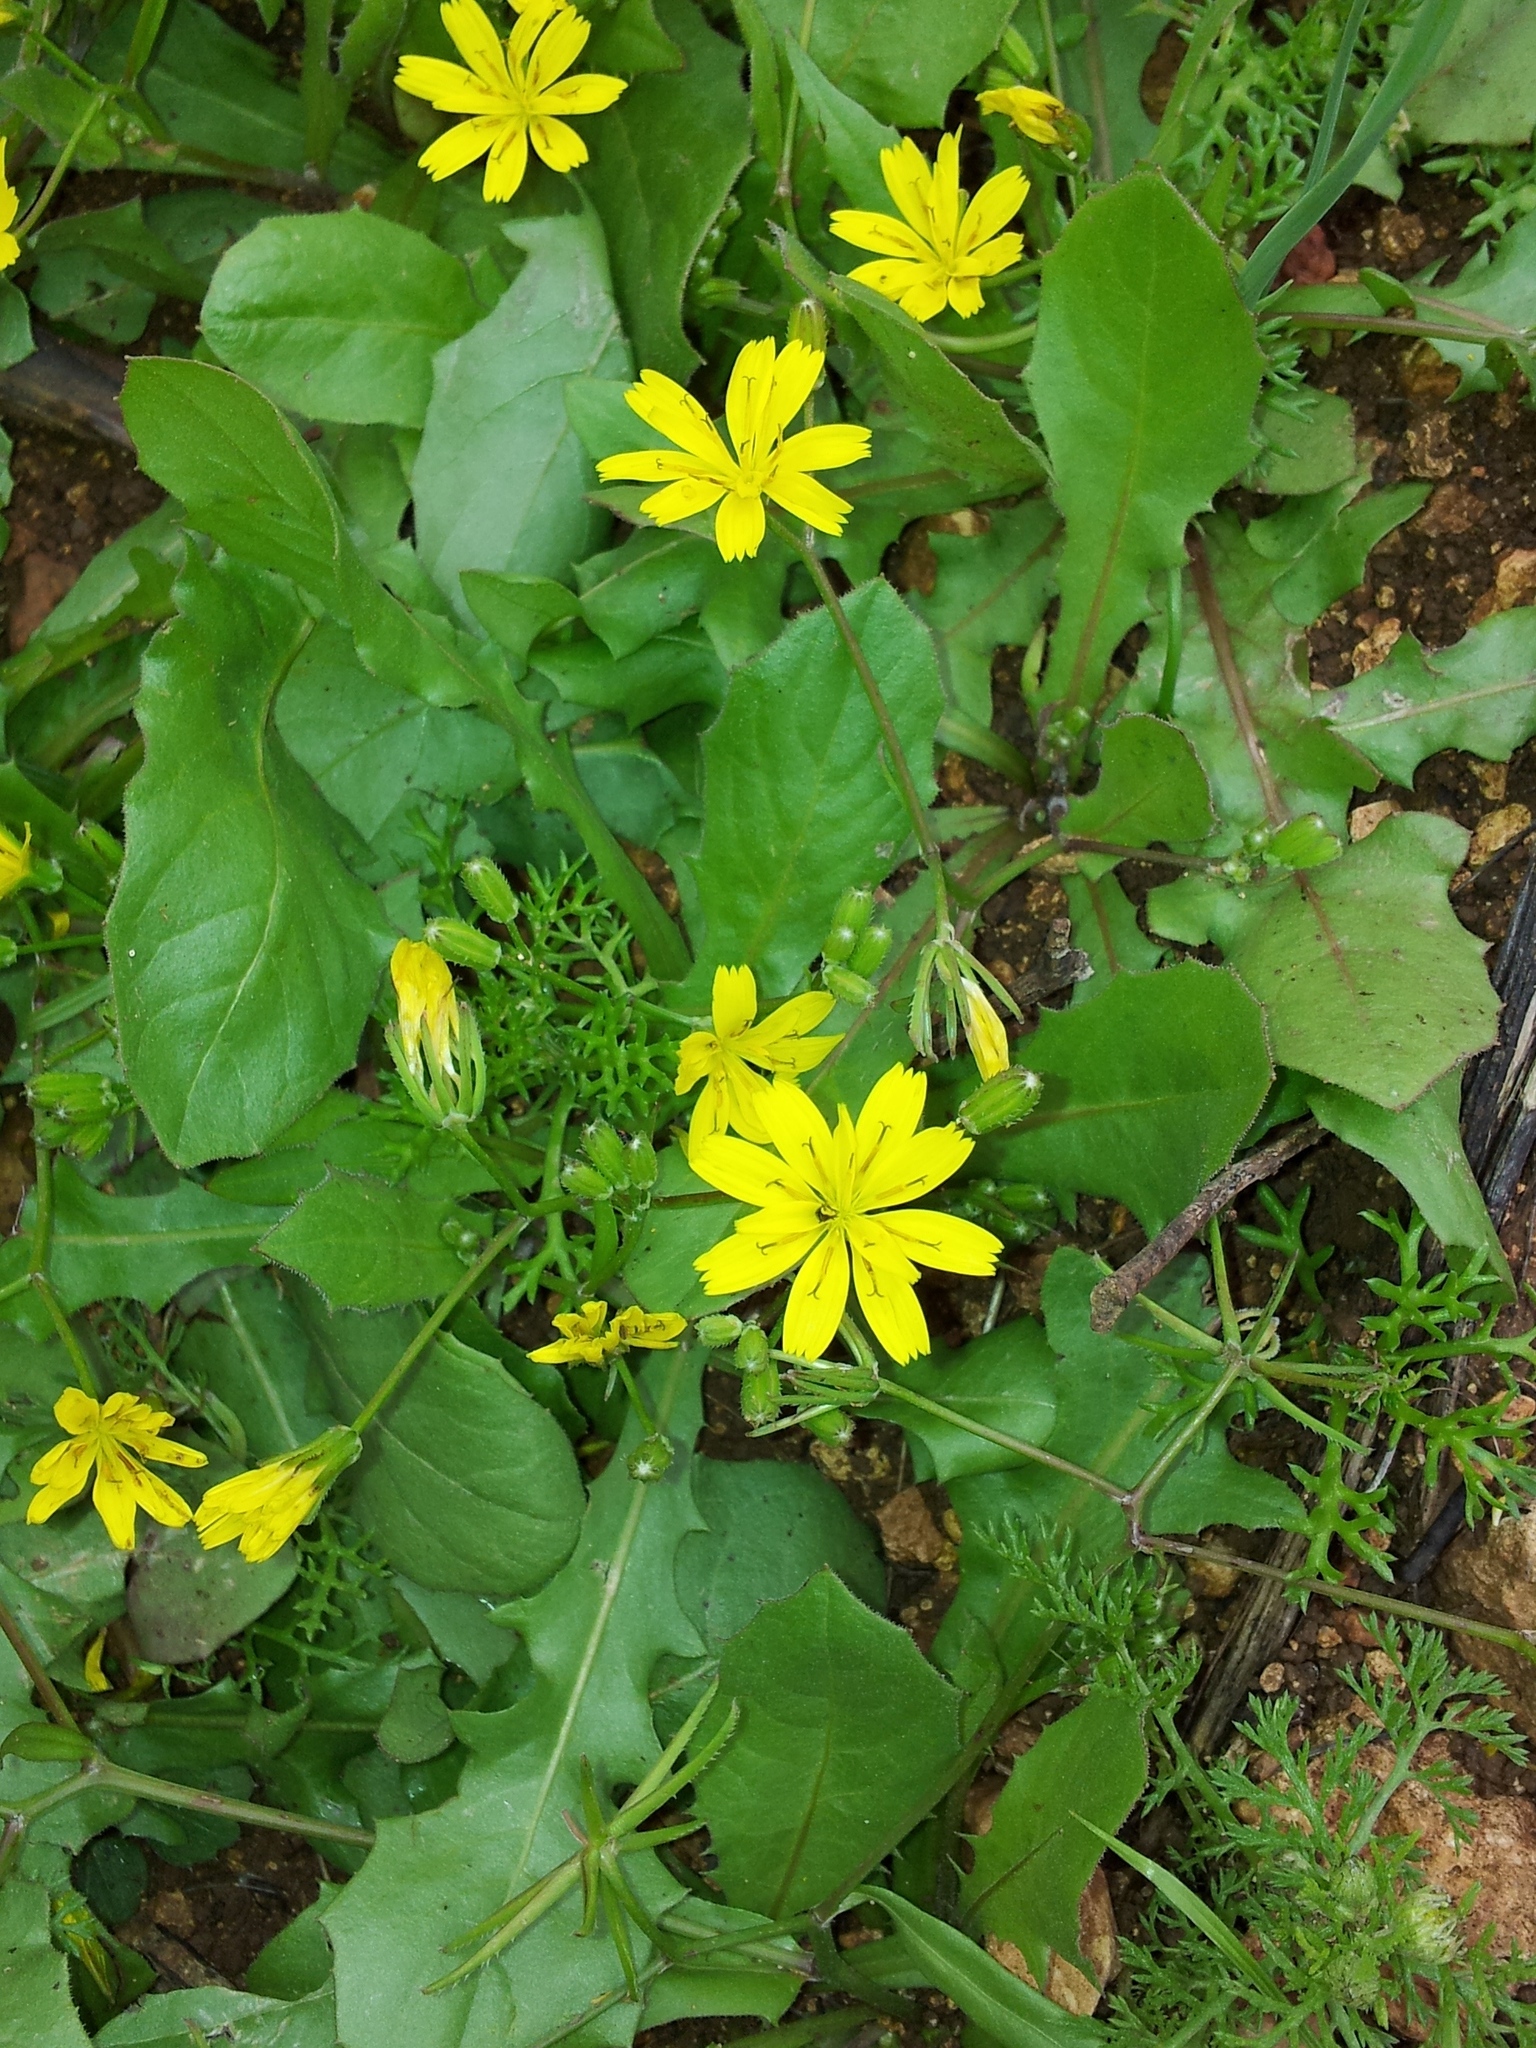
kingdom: Plantae
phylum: Tracheophyta
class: Magnoliopsida
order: Asterales
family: Asteraceae
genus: Rhagadiolus
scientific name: Rhagadiolus stellatus
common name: Star hawkbit
